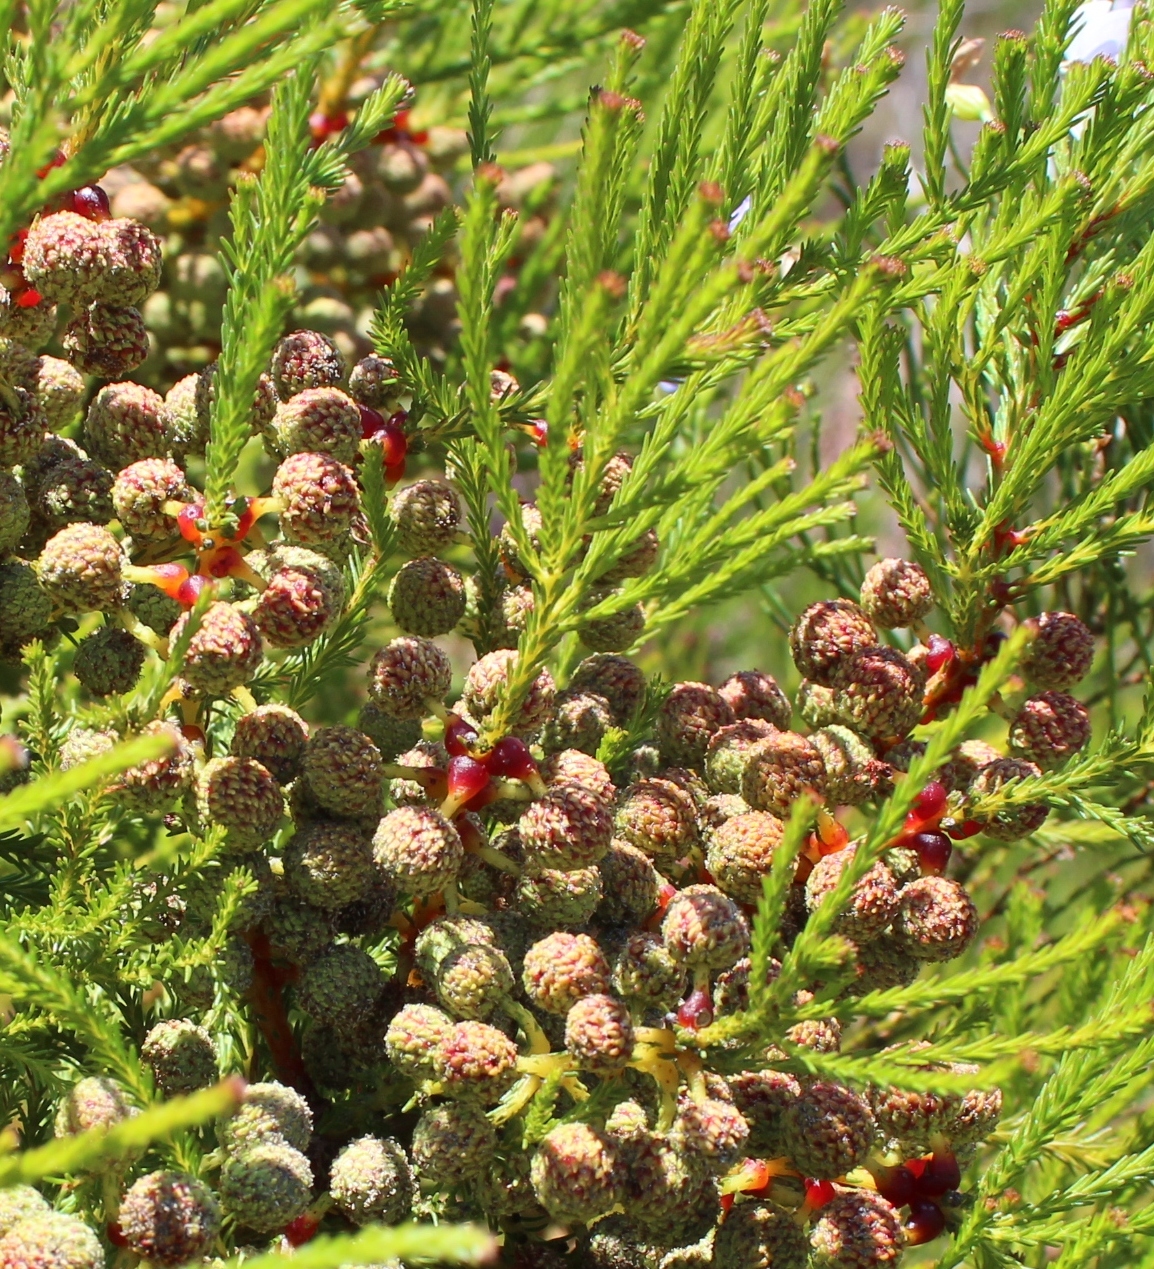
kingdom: Plantae
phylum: Tracheophyta
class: Magnoliopsida
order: Bruniales
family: Bruniaceae
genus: Berzelia
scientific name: Berzelia abrotanoides
